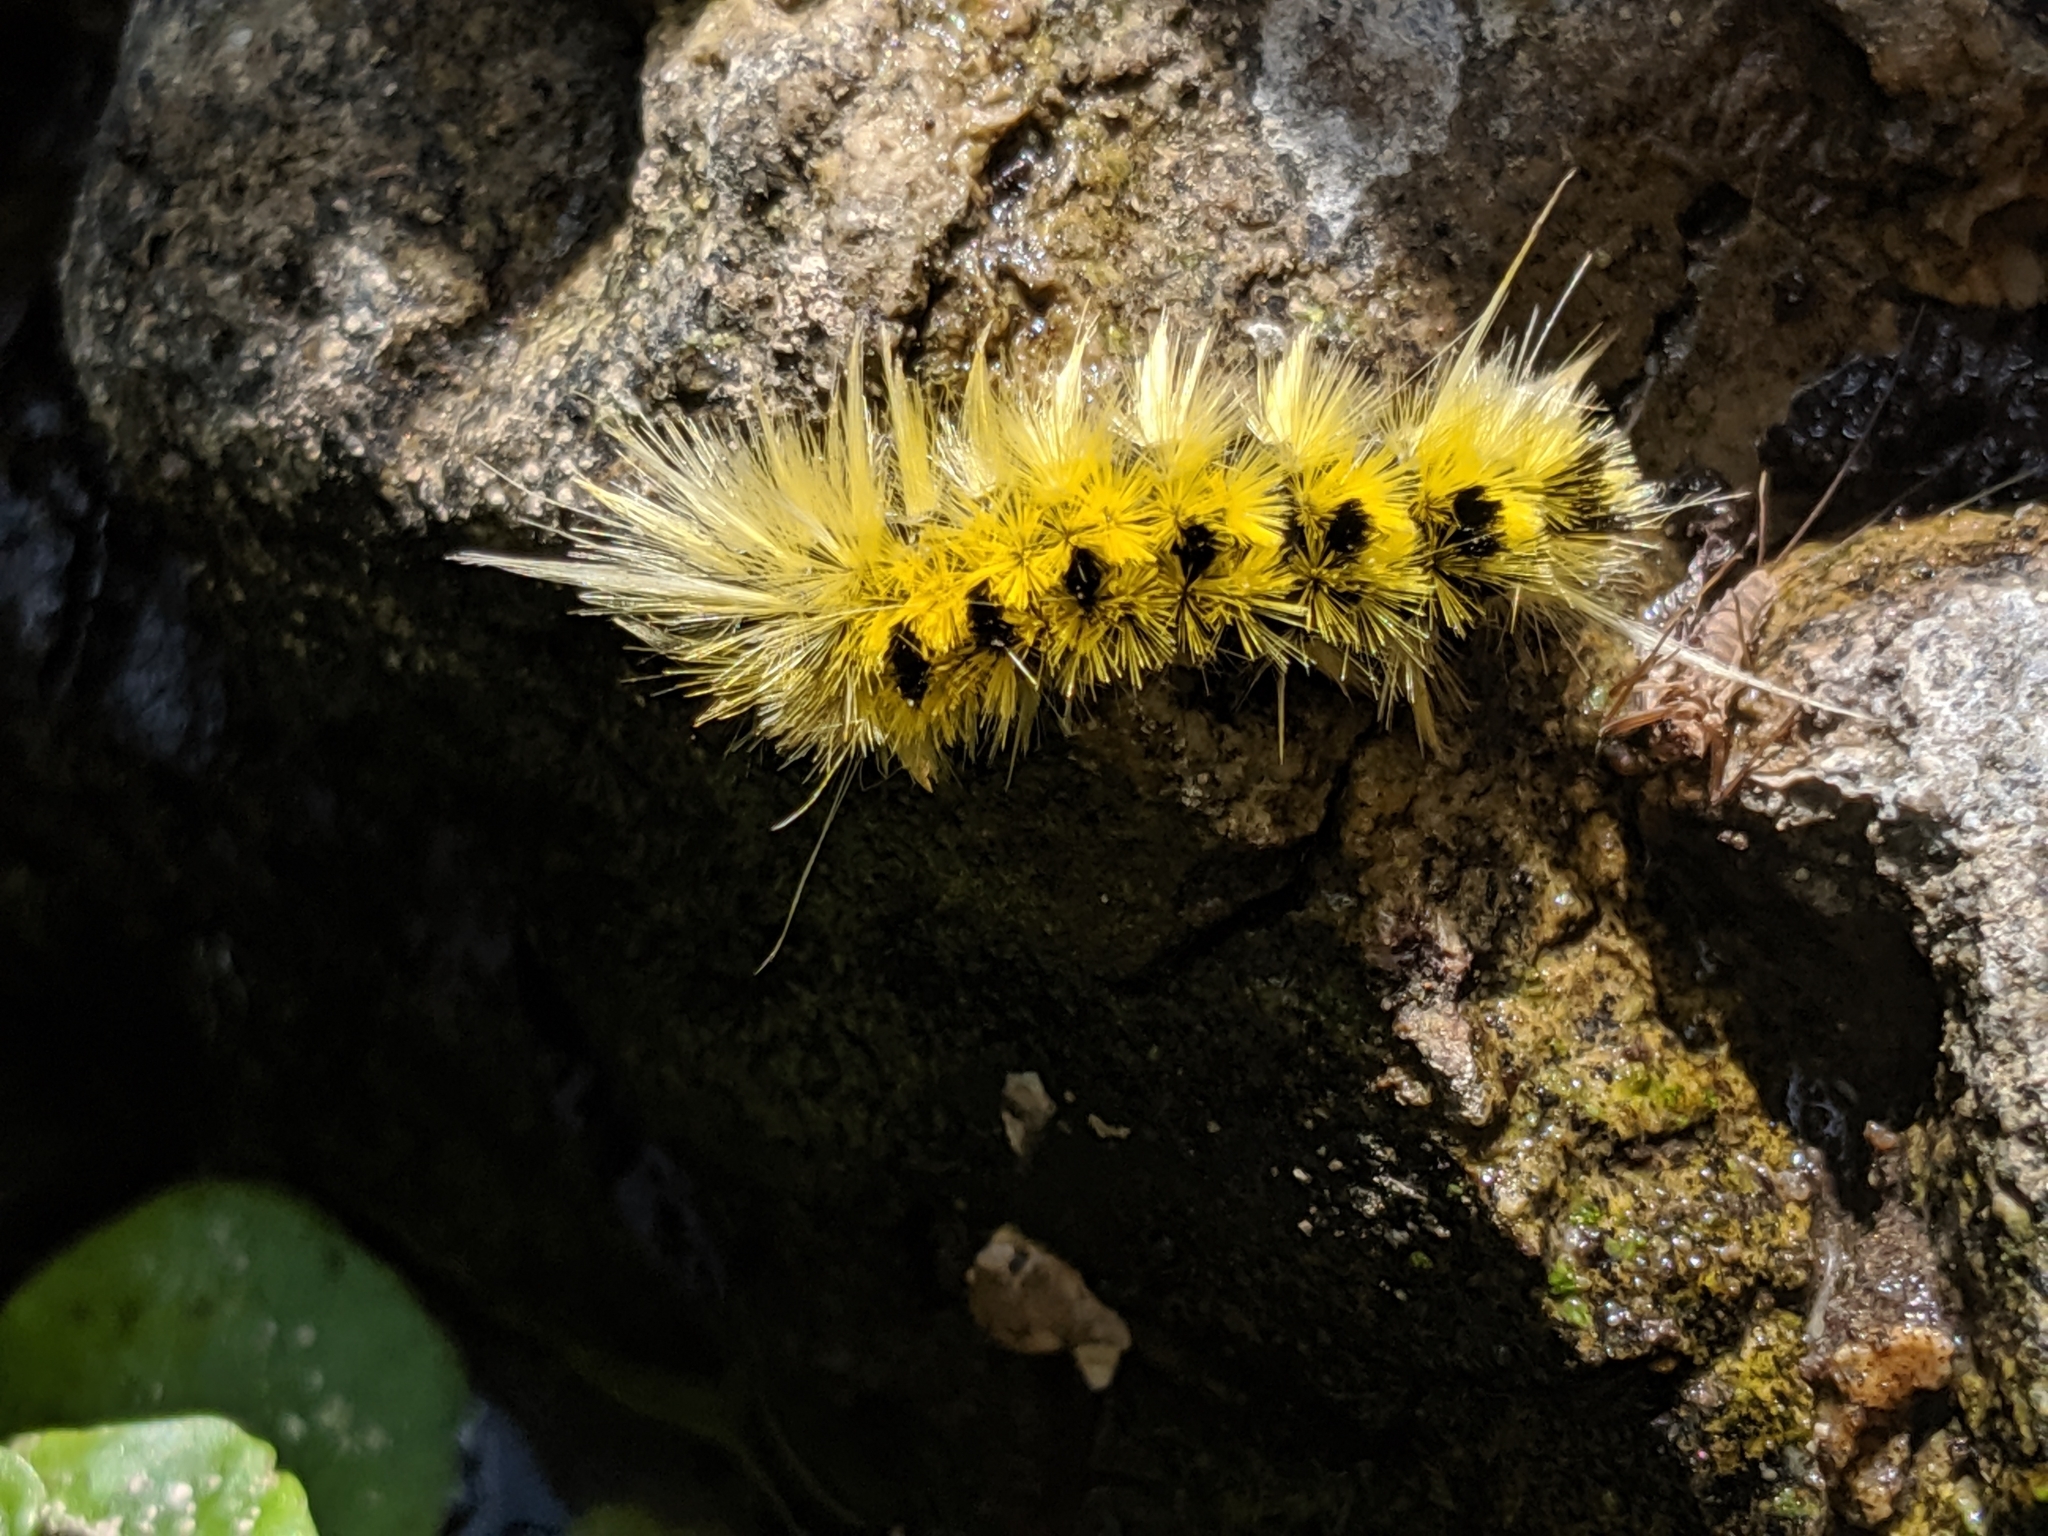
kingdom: Animalia
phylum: Arthropoda
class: Insecta
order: Lepidoptera
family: Erebidae
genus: Lophocampa
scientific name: Lophocampa maculata
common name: Spotted tussock moth
